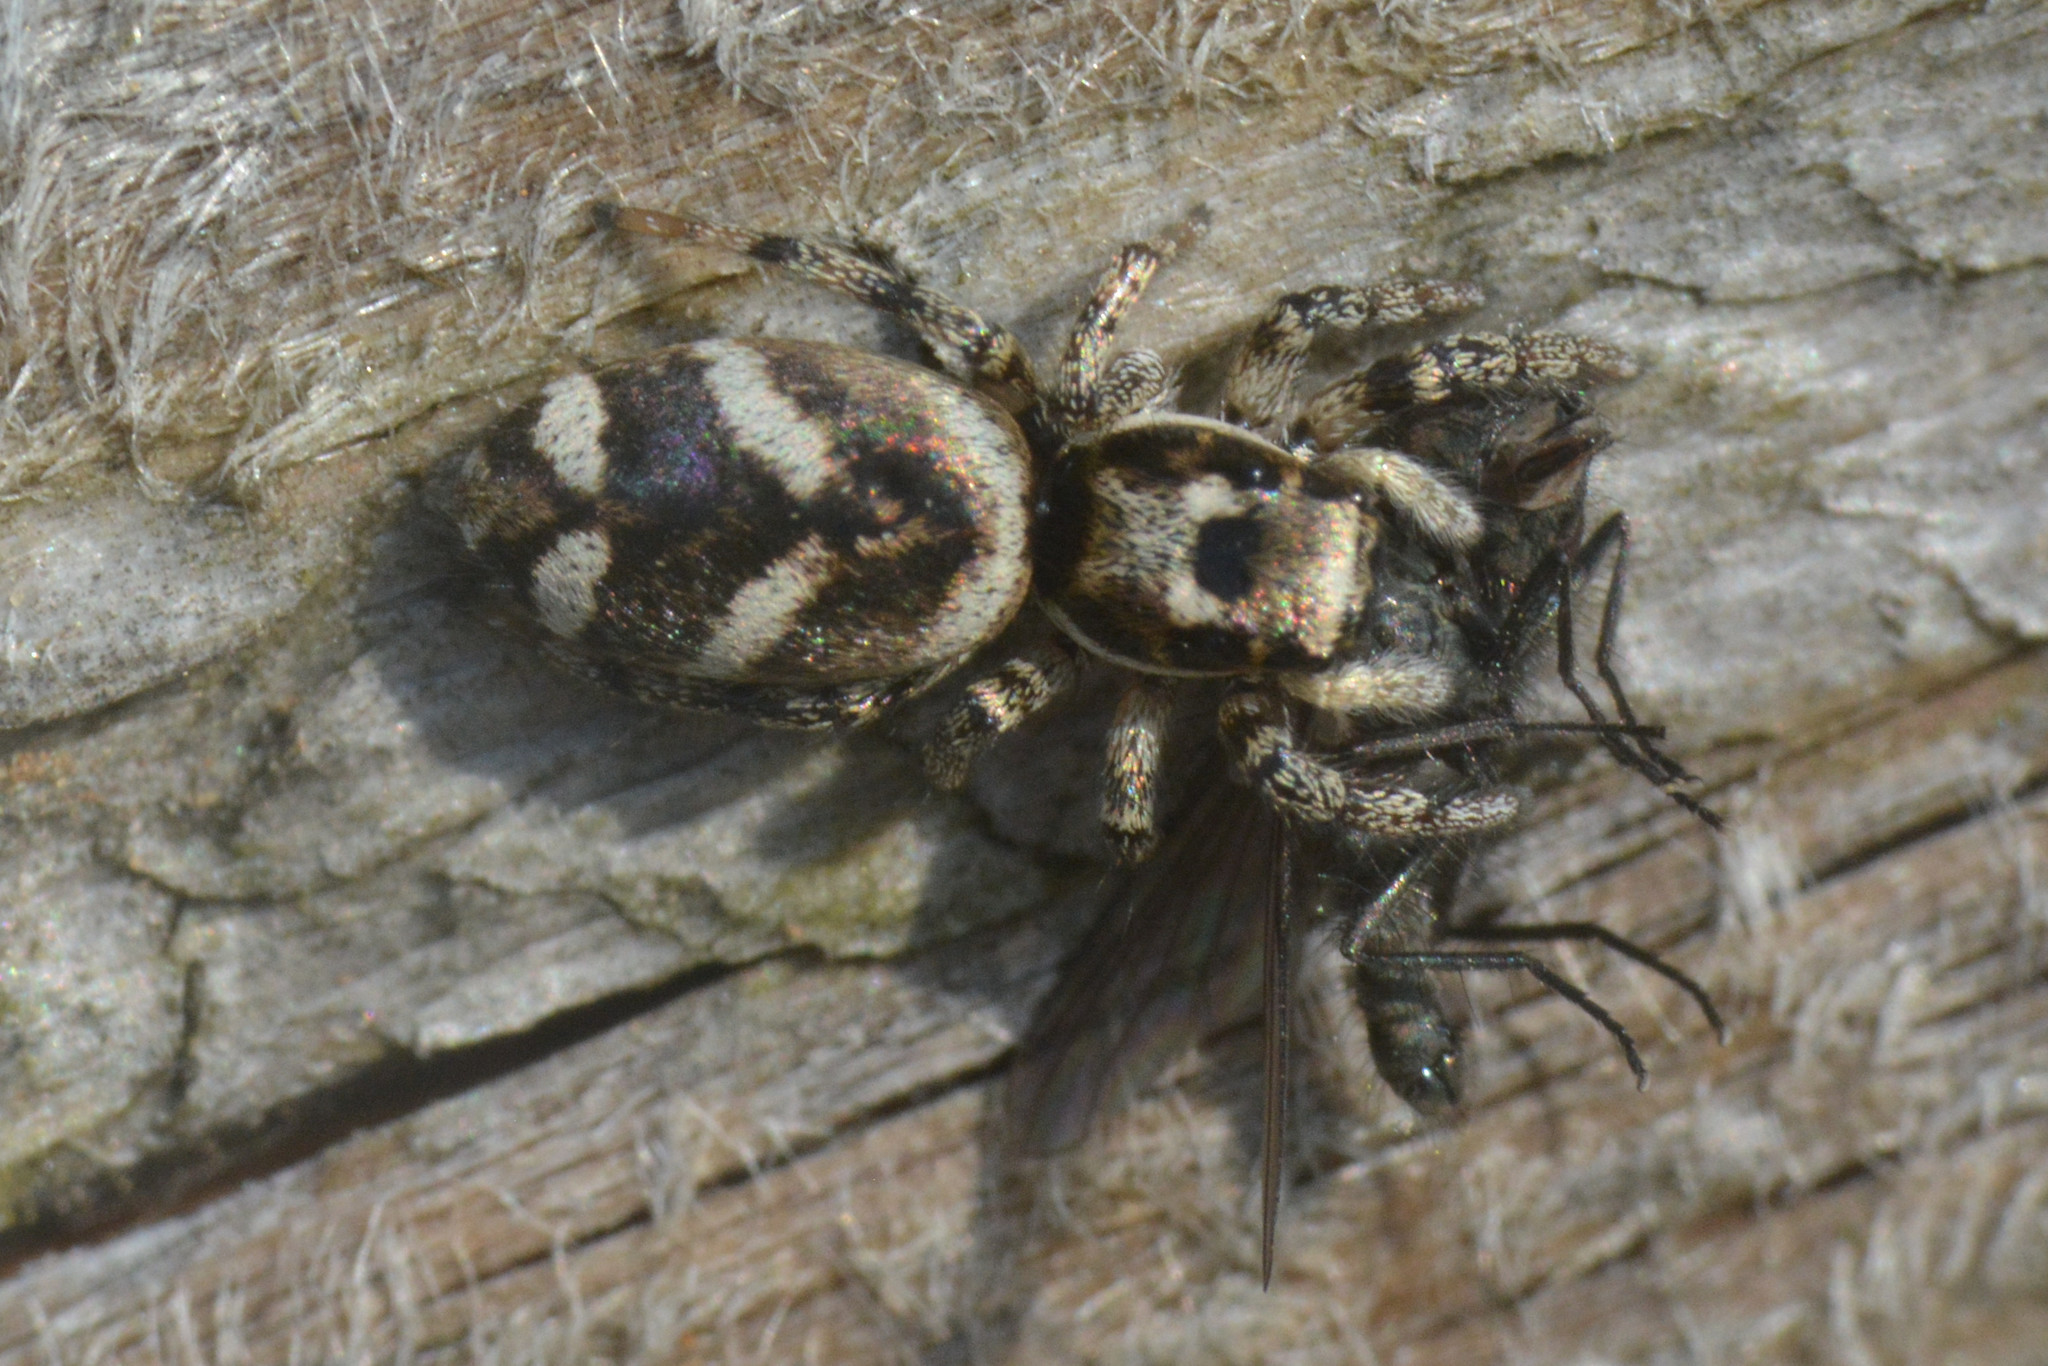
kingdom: Animalia
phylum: Arthropoda
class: Arachnida
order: Araneae
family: Salticidae
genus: Salticus
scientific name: Salticus scenicus
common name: Zebra jumper
